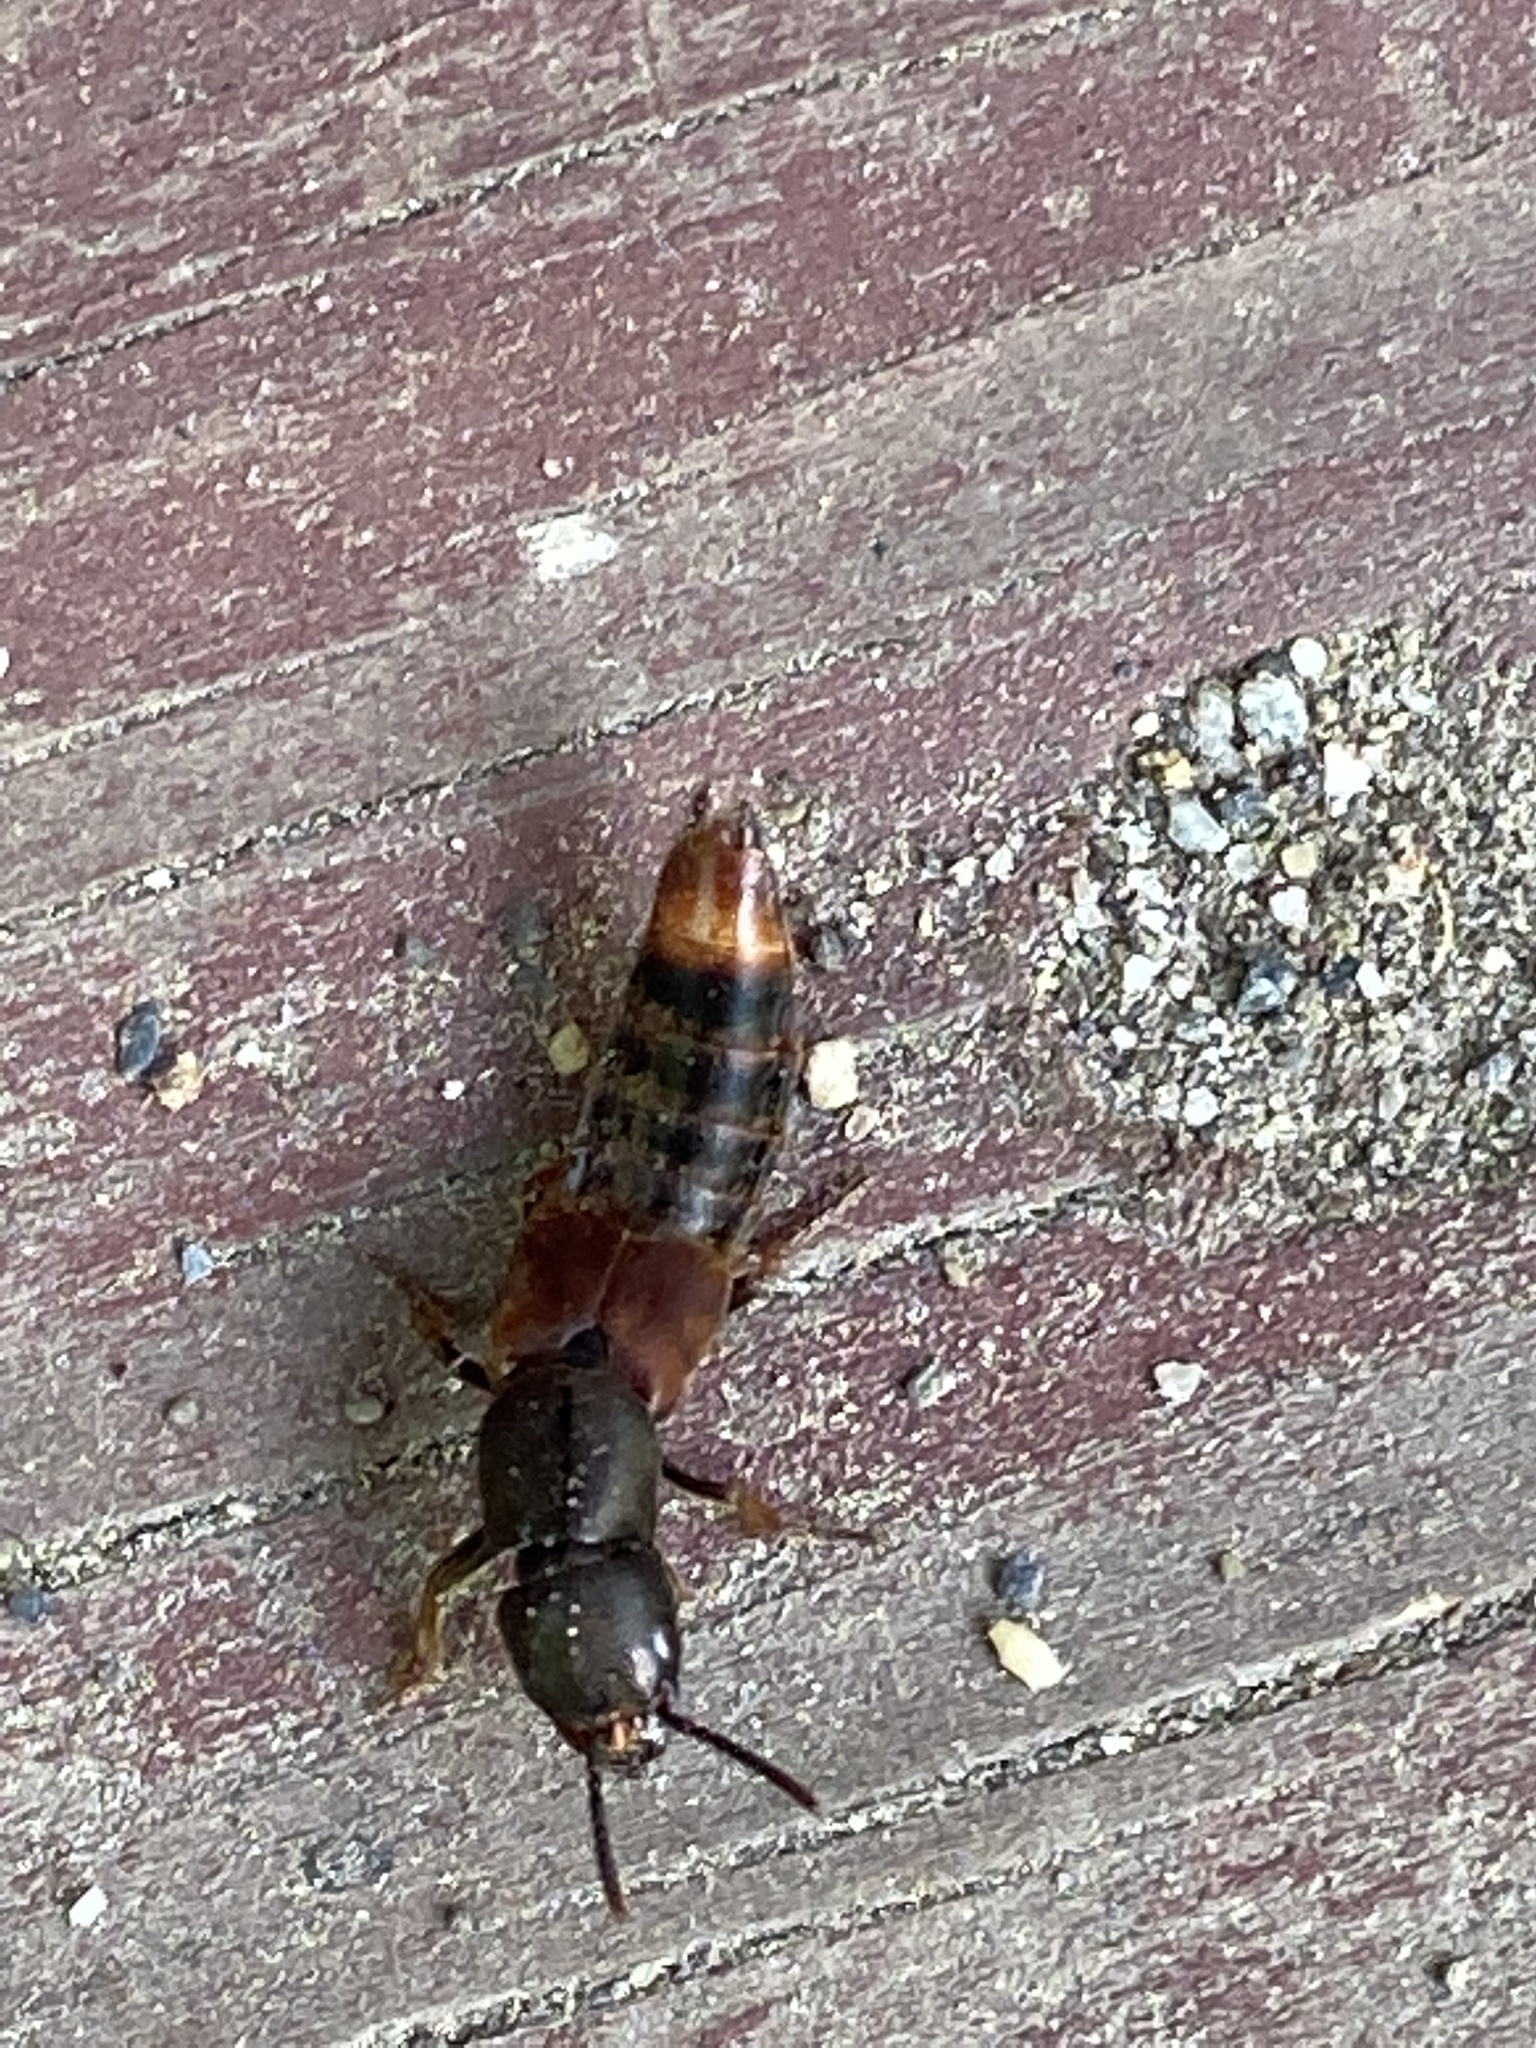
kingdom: Animalia
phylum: Arthropoda
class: Insecta
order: Coleoptera
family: Staphylinidae
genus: Platydracus
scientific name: Platydracus cinnamopterus
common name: Cinnamon rove beetle
